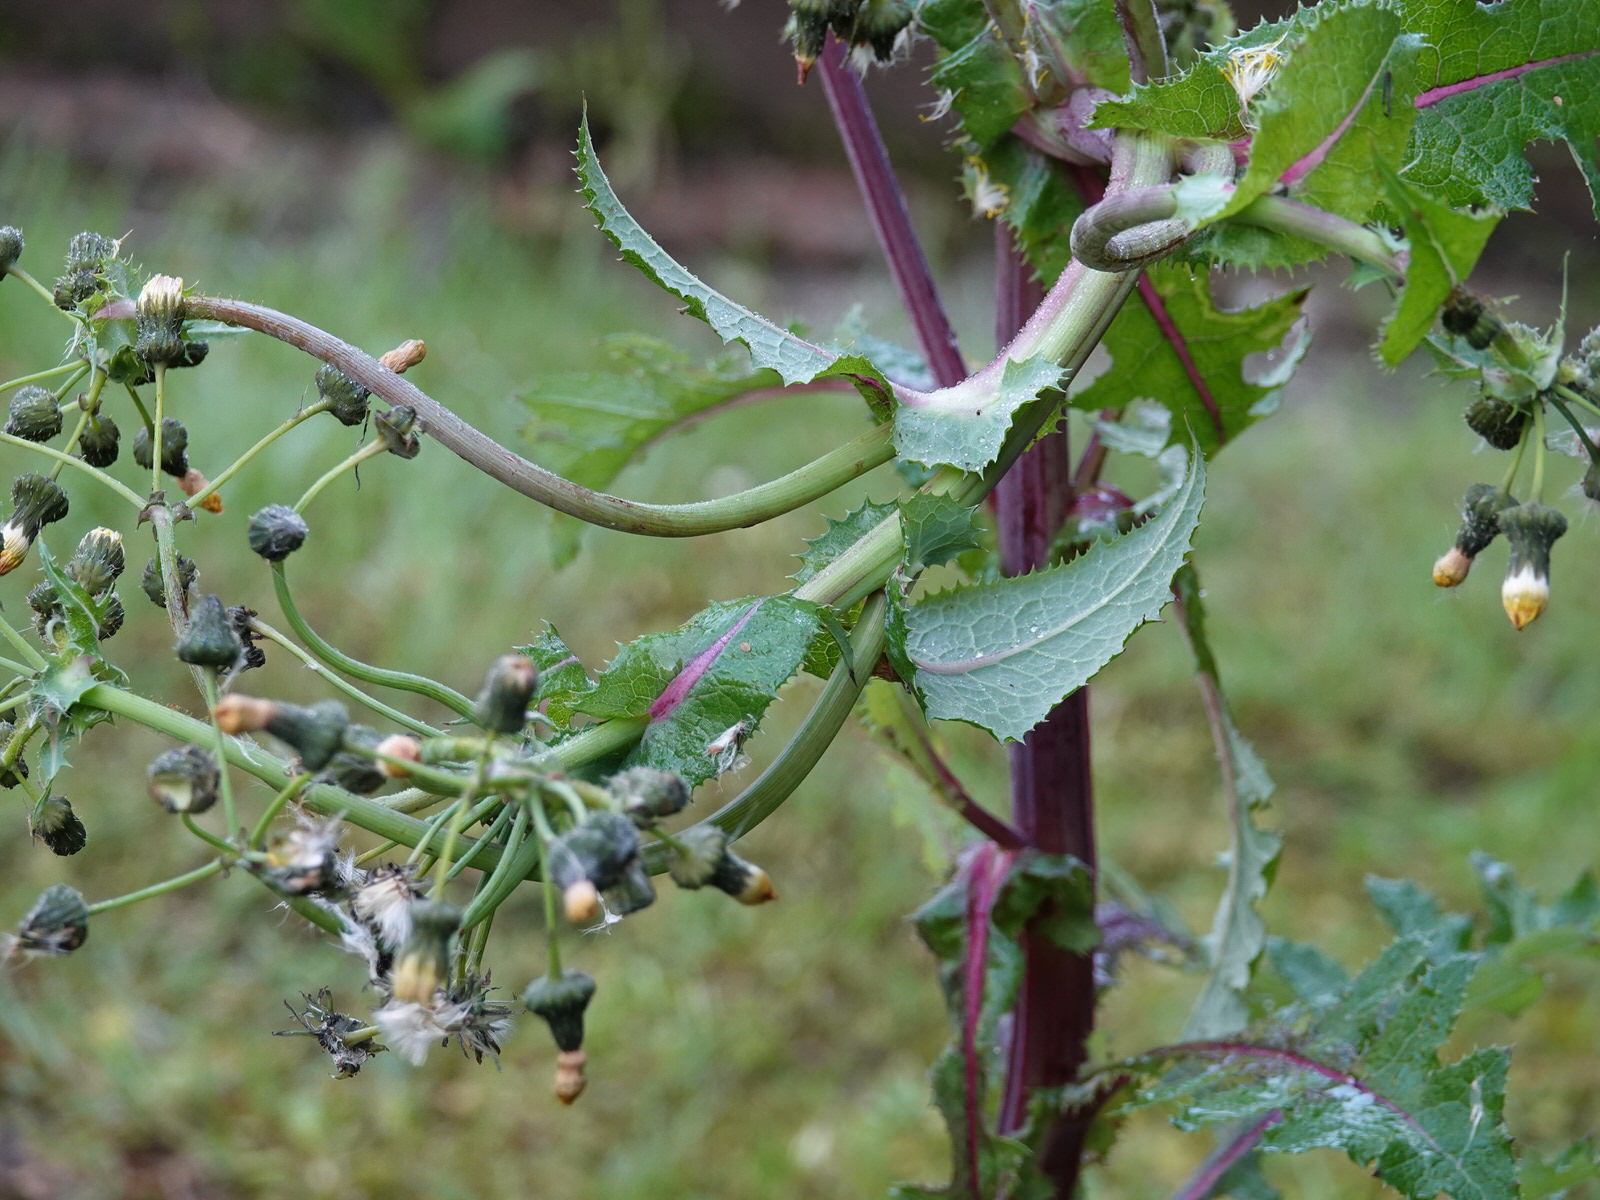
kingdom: Plantae
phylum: Tracheophyta
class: Magnoliopsida
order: Asterales
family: Asteraceae
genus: Sonchus
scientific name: Sonchus asper
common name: Prickly sow-thistle
